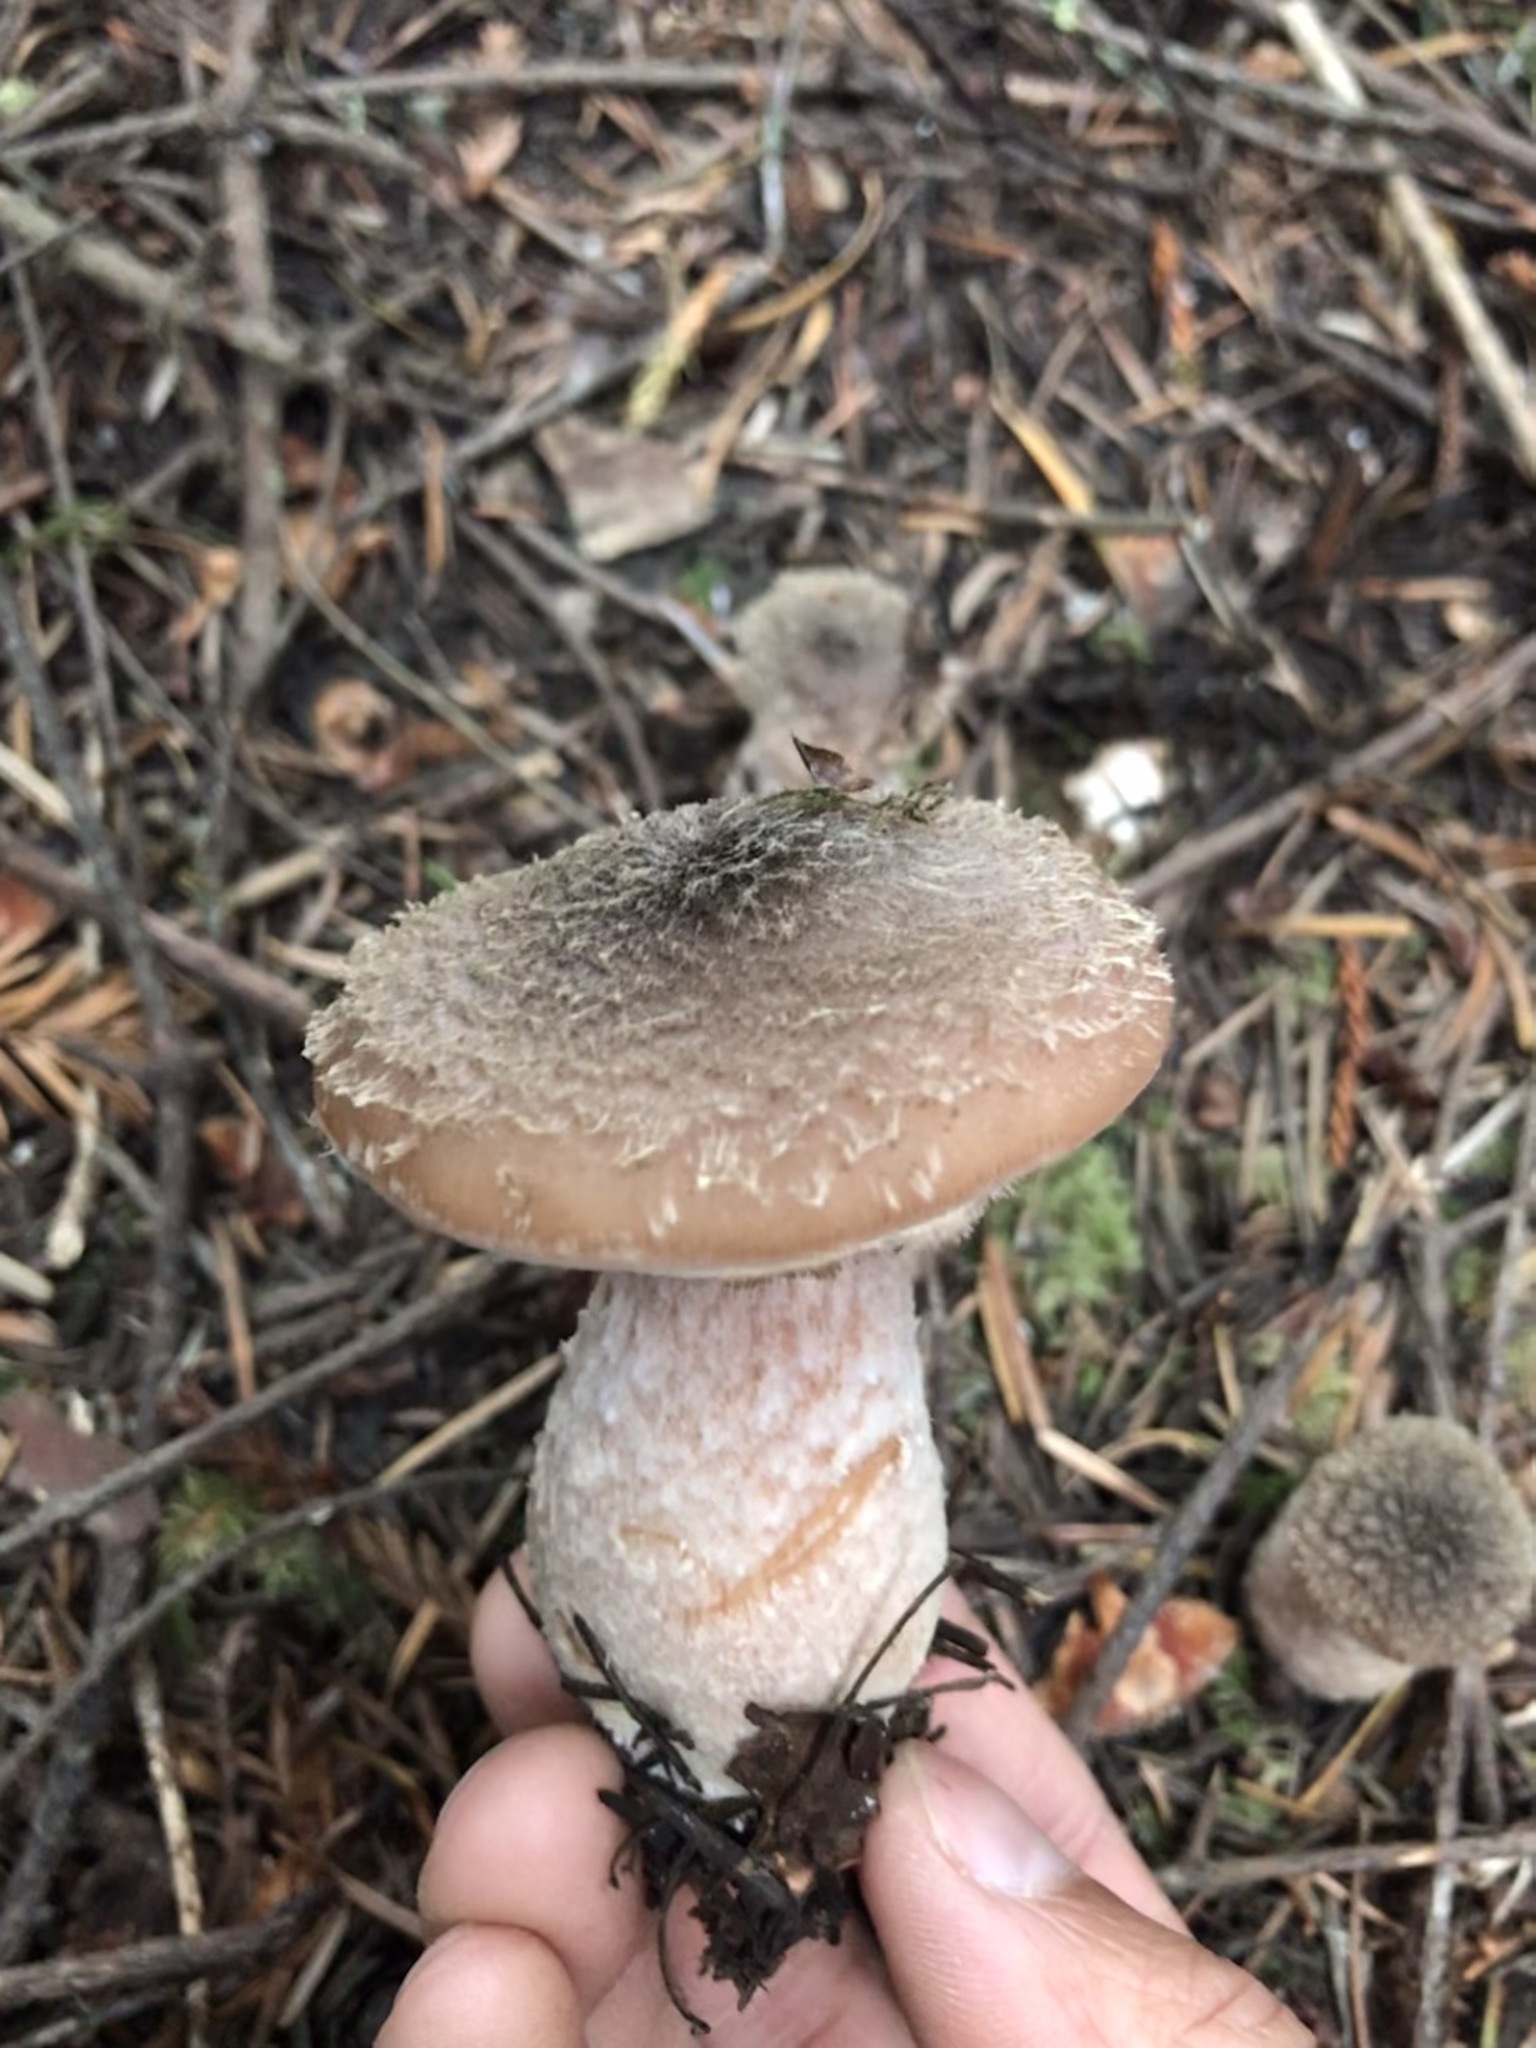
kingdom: Fungi
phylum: Basidiomycota
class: Agaricomycetes
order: Agaricales
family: Physalacriaceae
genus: Armillaria
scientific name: Armillaria sinapina
